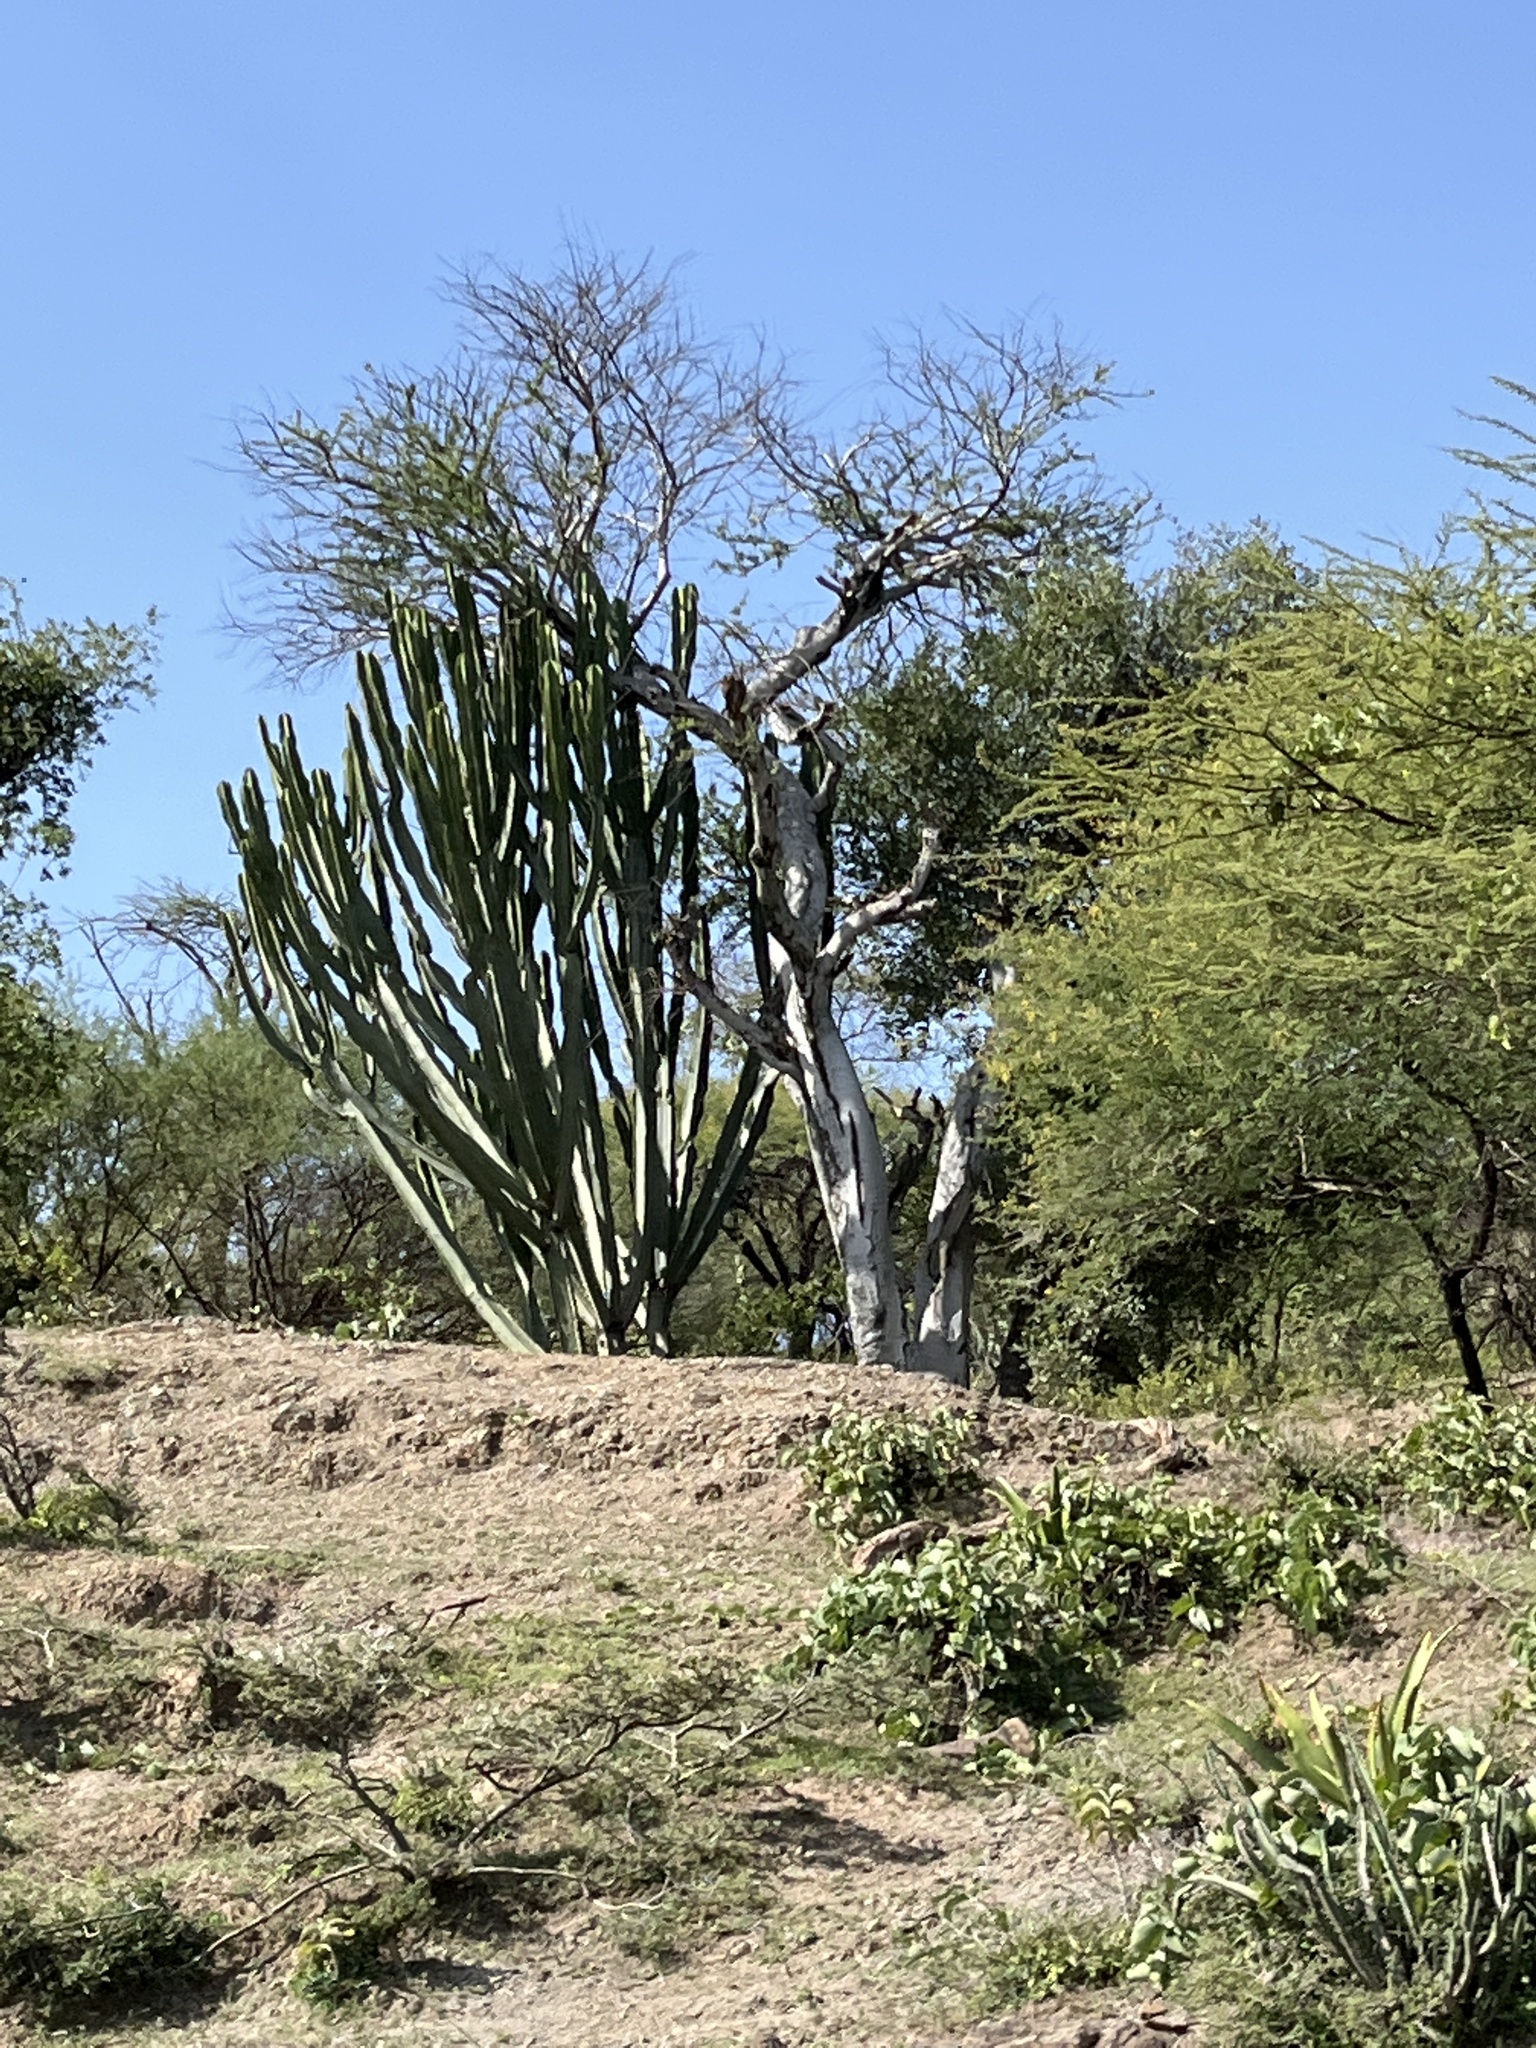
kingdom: Plantae
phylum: Tracheophyta
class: Magnoliopsida
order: Malpighiales
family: Euphorbiaceae
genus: Euphorbia
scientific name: Euphorbia ingens
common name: Cactus spurge
